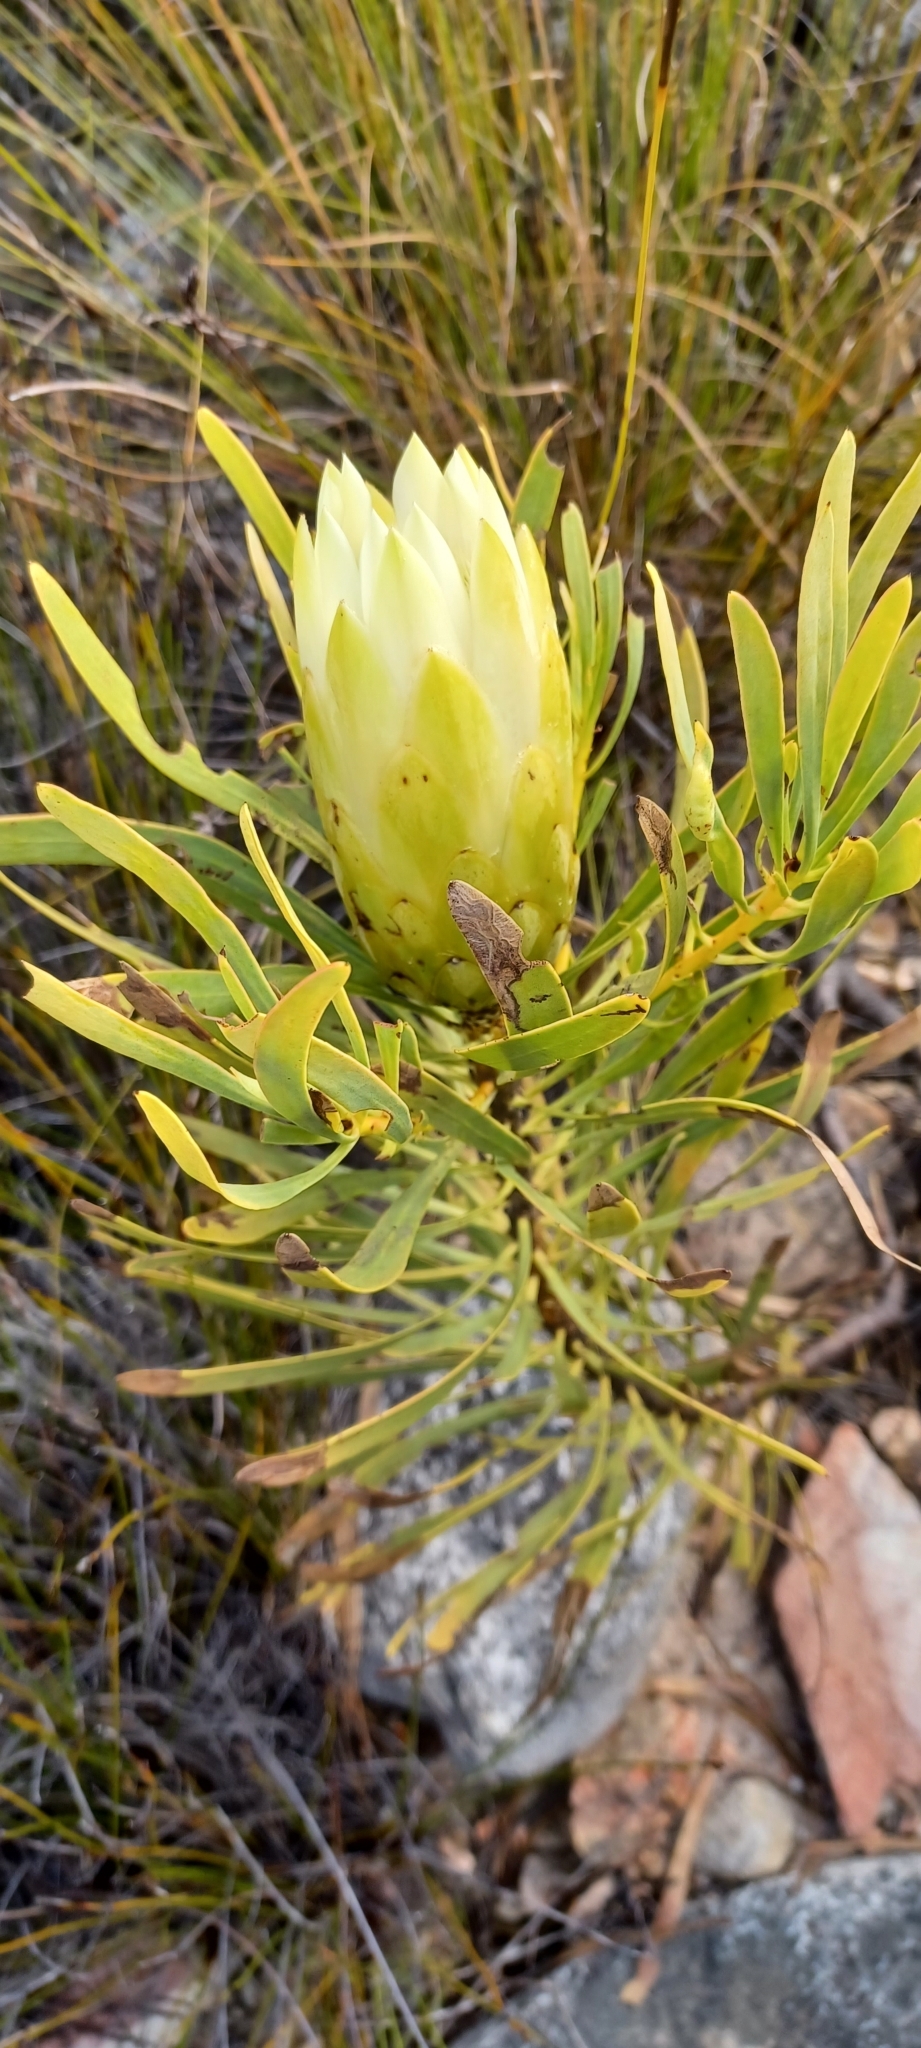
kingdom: Plantae
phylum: Tracheophyta
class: Magnoliopsida
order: Proteales
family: Proteaceae
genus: Protea
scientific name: Protea repens
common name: Sugarbush
